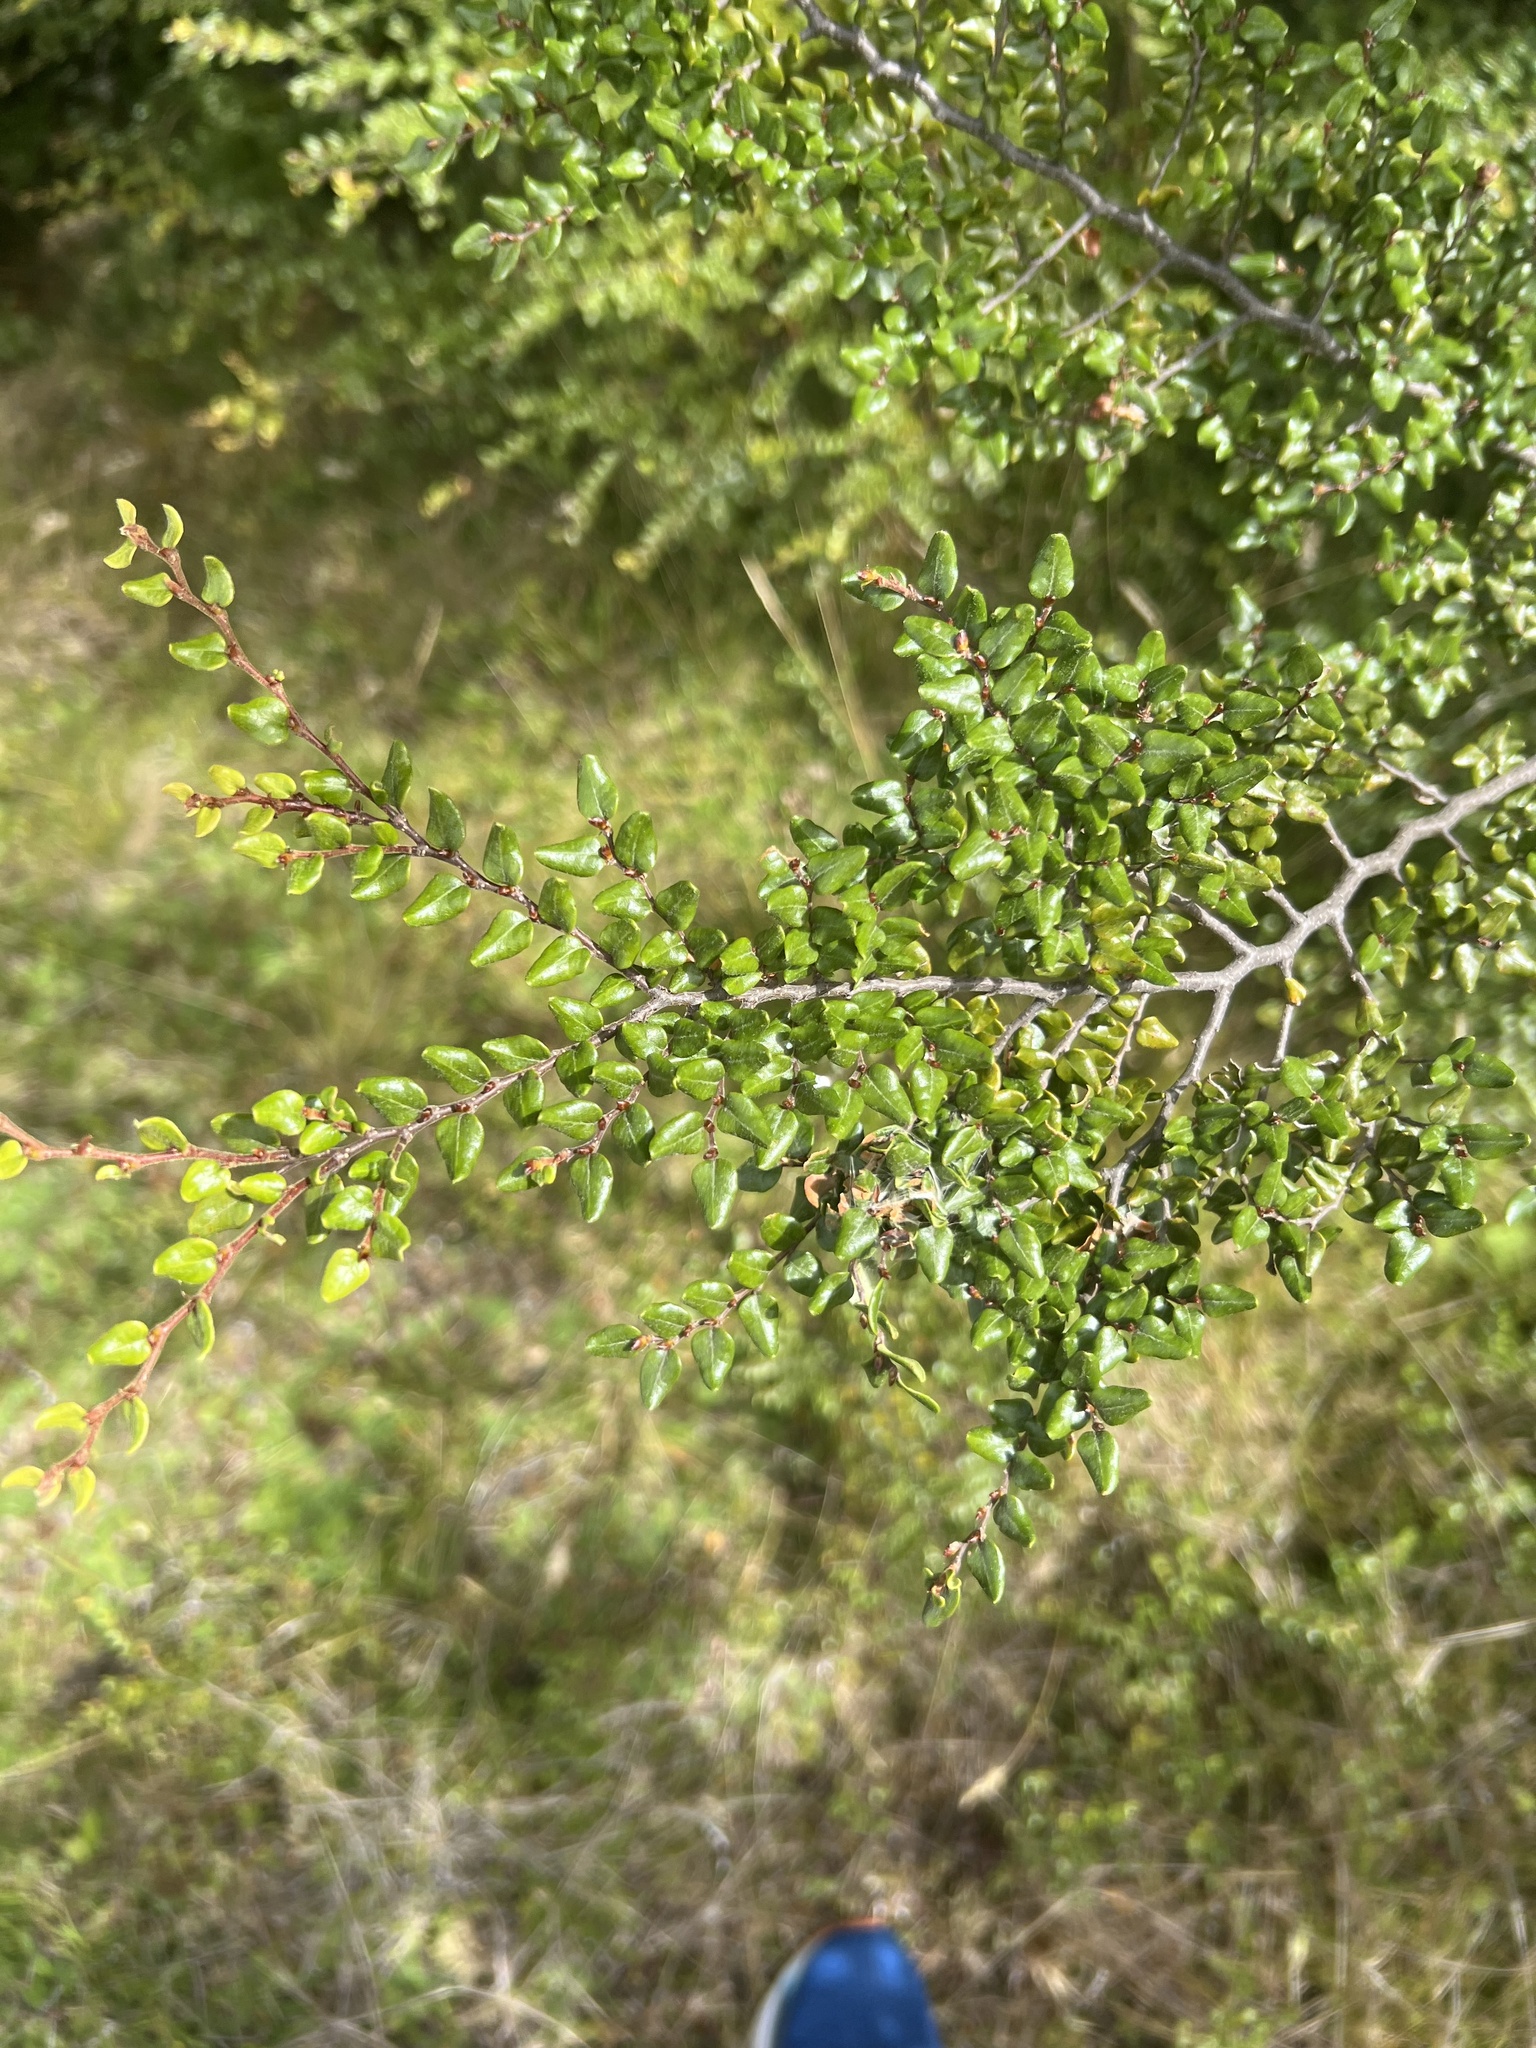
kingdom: Plantae
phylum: Tracheophyta
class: Magnoliopsida
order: Fagales
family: Nothofagaceae
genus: Nothofagus
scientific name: Nothofagus cliffortioides
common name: Mountain beech
